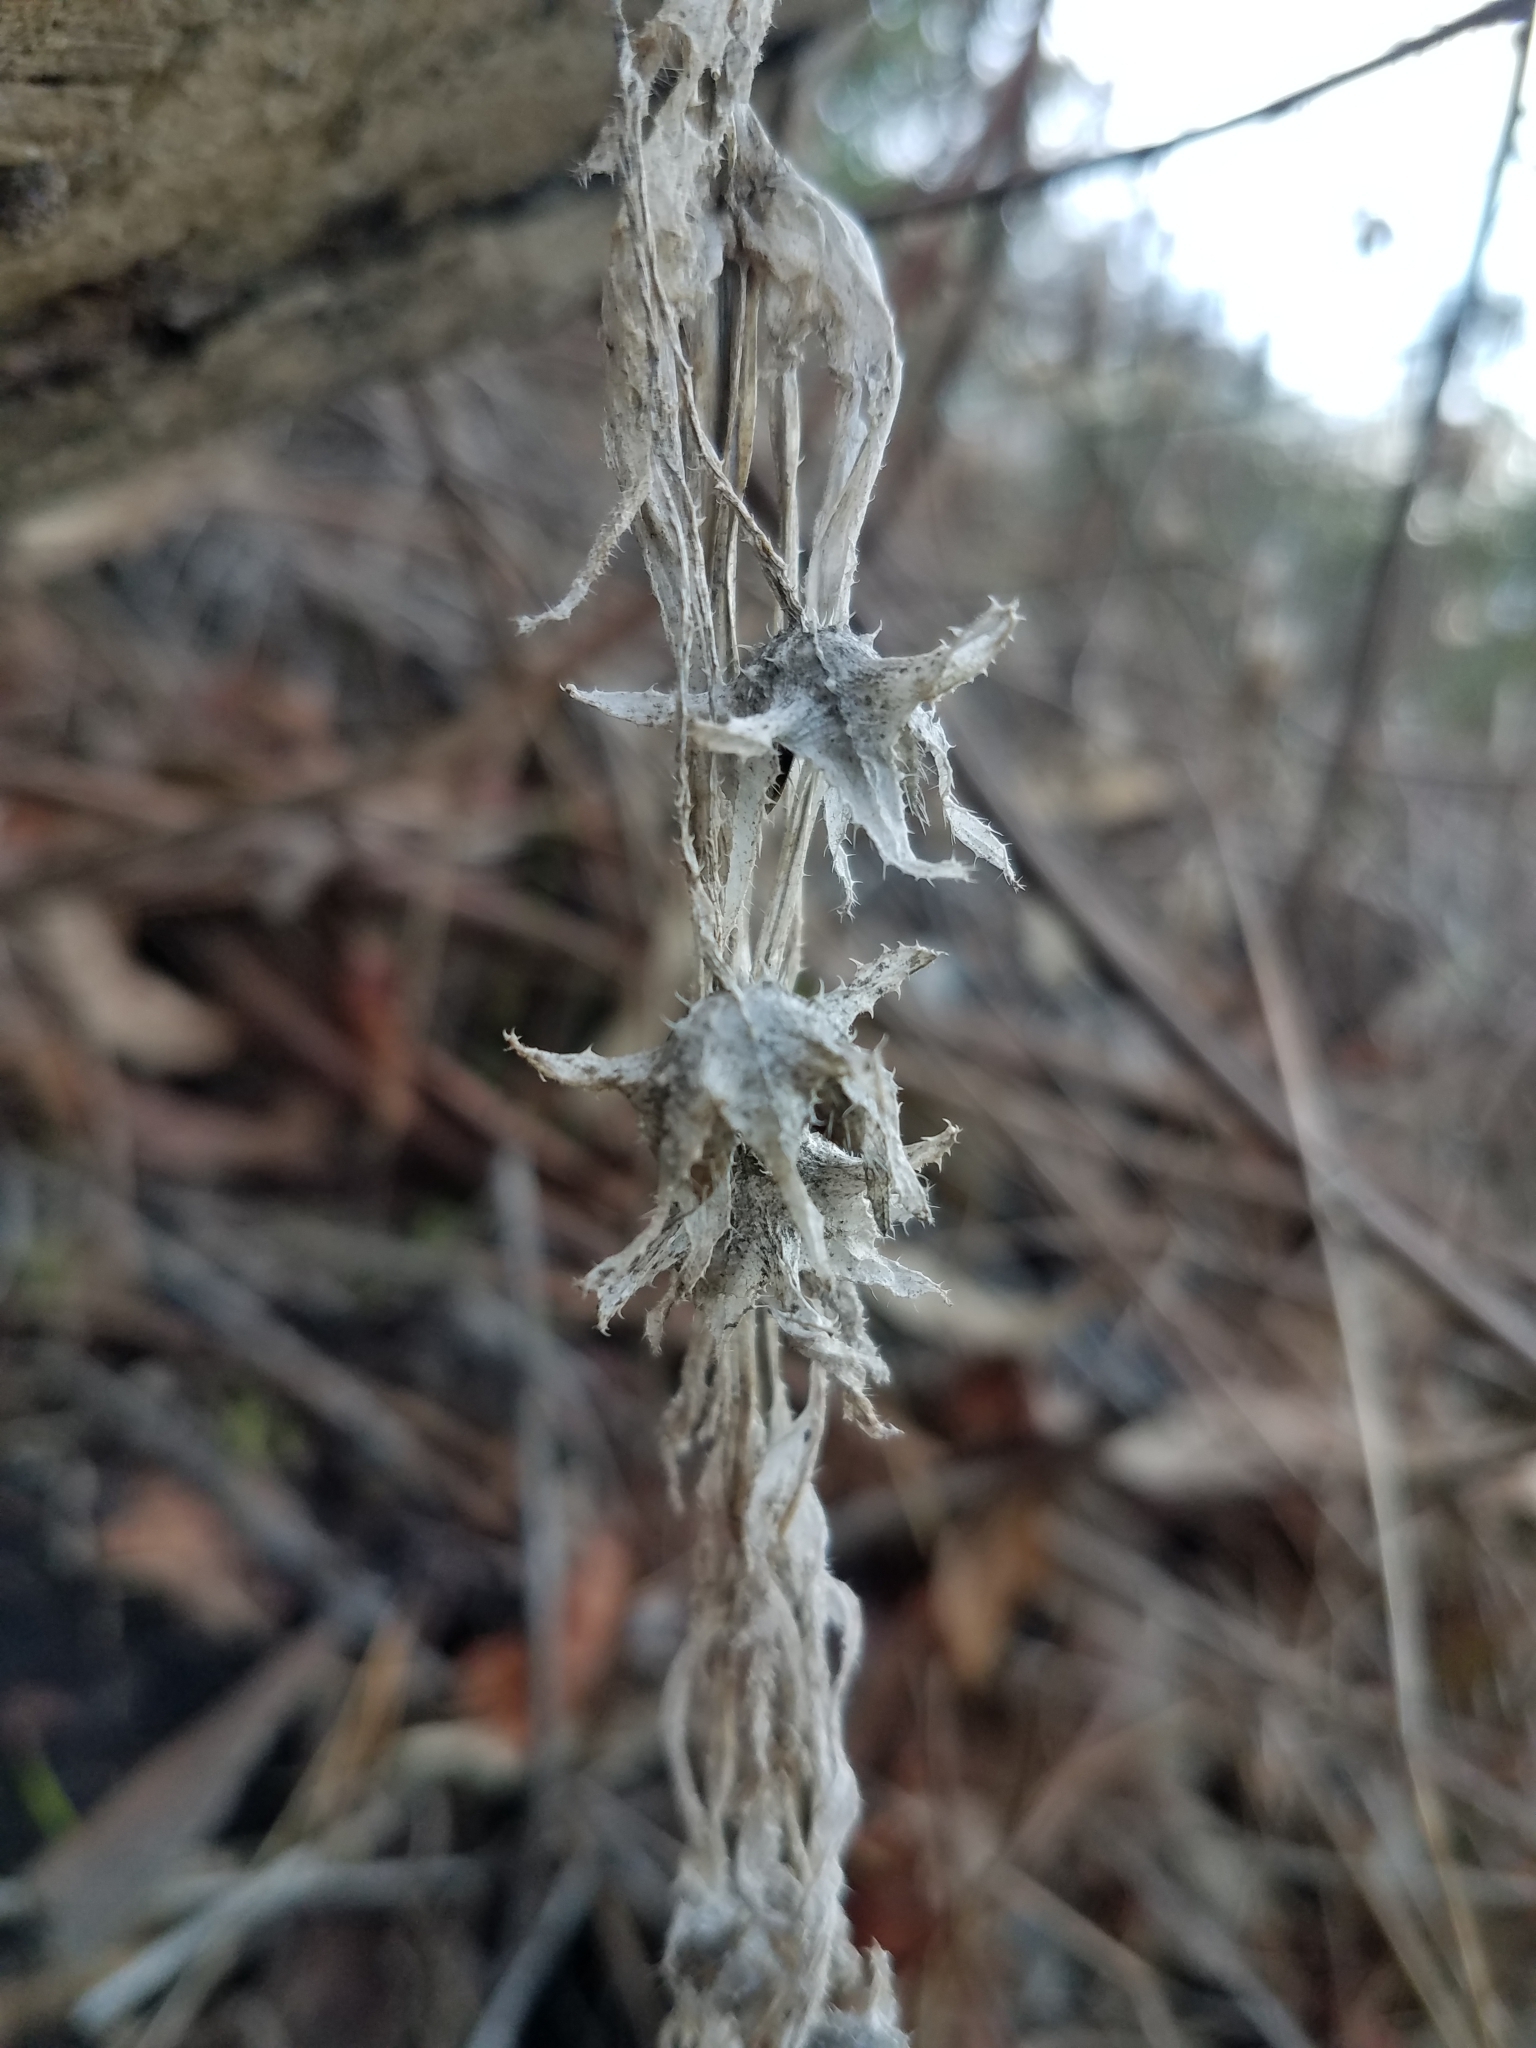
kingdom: Plantae
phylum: Tracheophyta
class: Magnoliopsida
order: Boraginales
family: Hydrophyllaceae
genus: Pholistoma
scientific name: Pholistoma auritum
